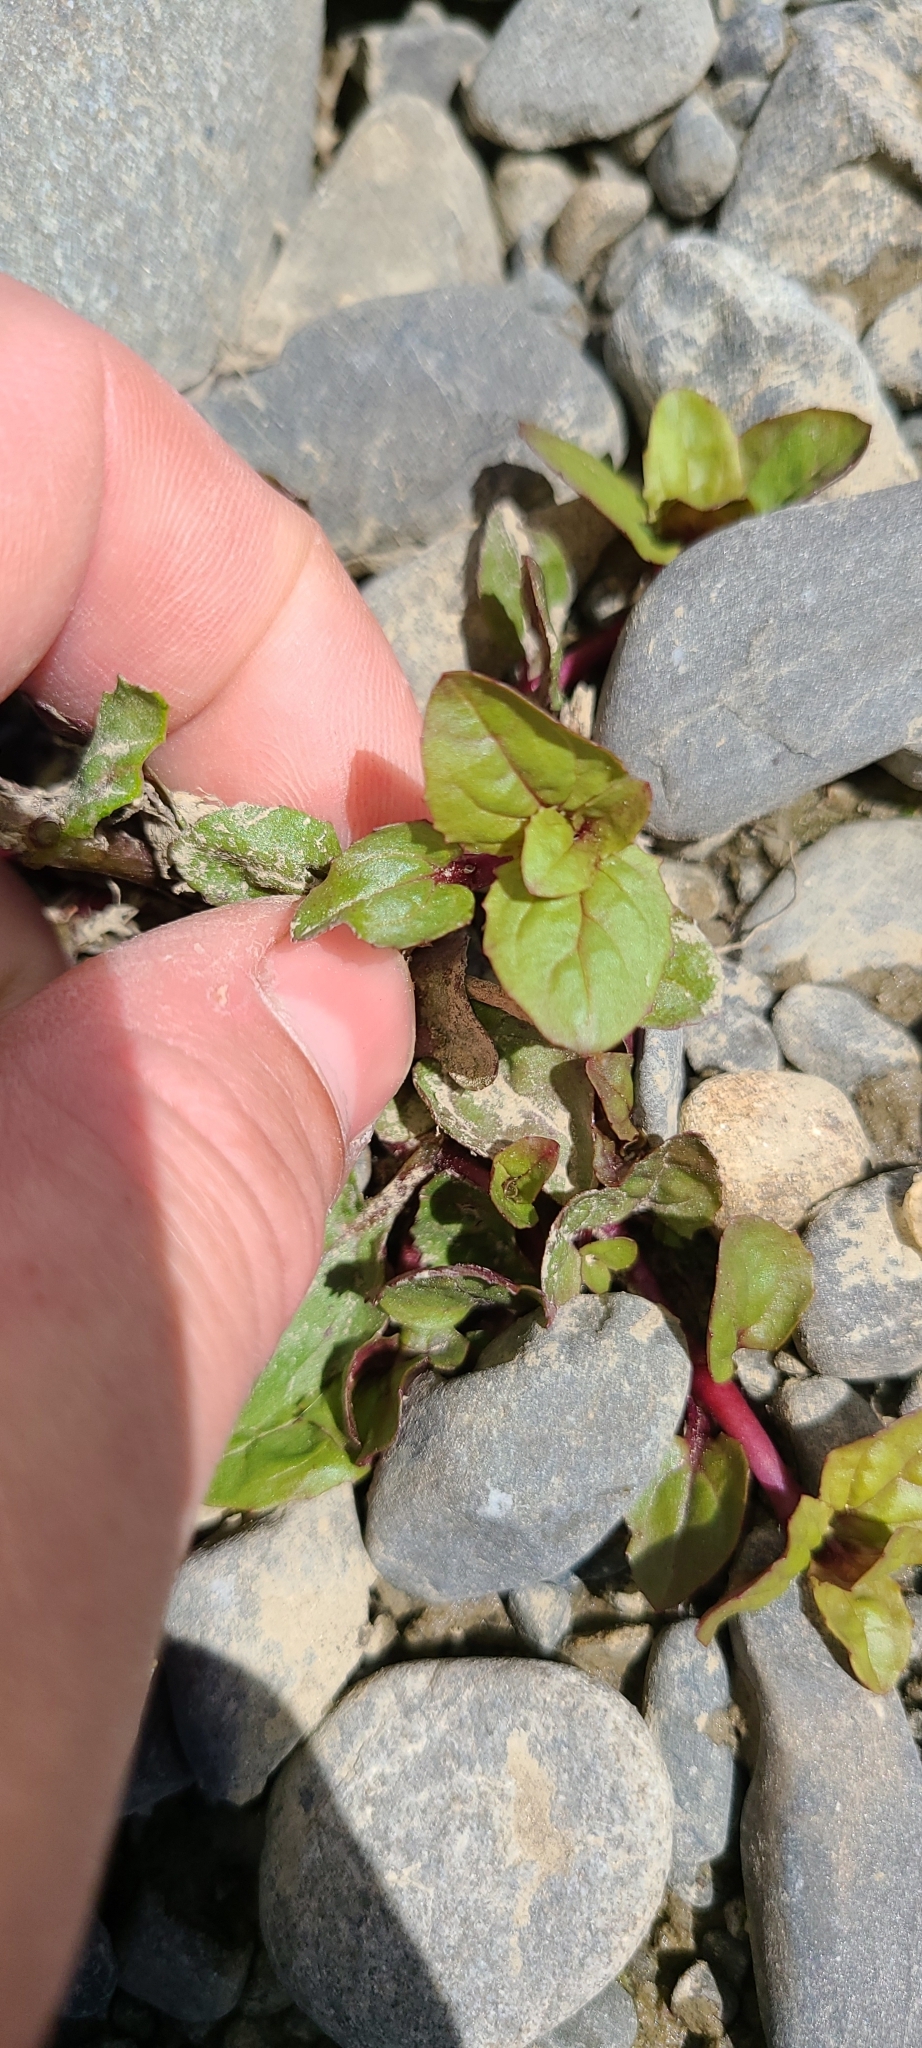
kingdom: Plantae
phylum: Tracheophyta
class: Magnoliopsida
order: Lamiales
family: Phrymaceae
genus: Erythranthe
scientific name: Erythranthe guttata
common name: Monkeyflower
